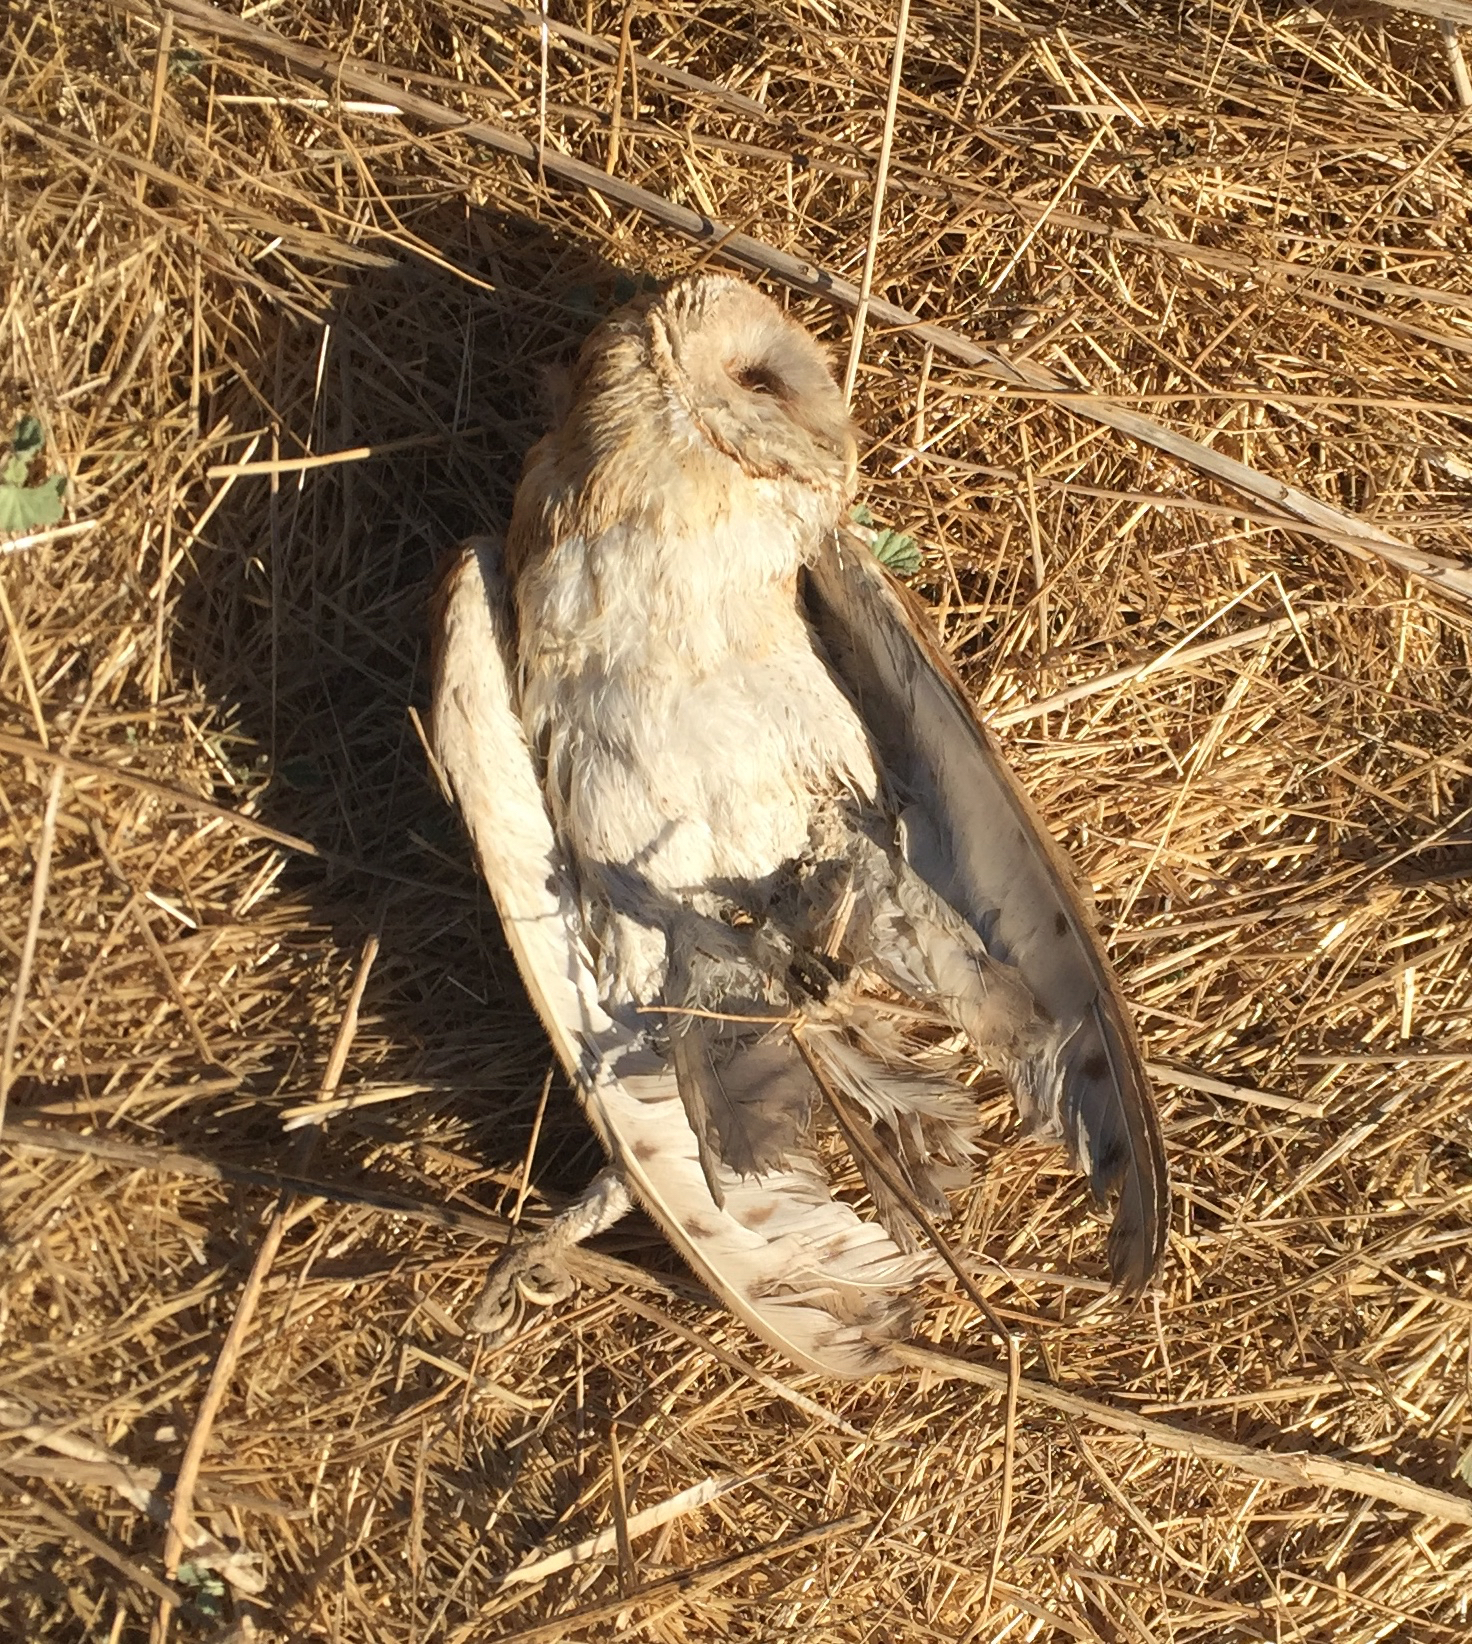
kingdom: Animalia
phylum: Chordata
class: Aves
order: Strigiformes
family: Tytonidae
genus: Tyto
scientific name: Tyto alba
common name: Barn owl
